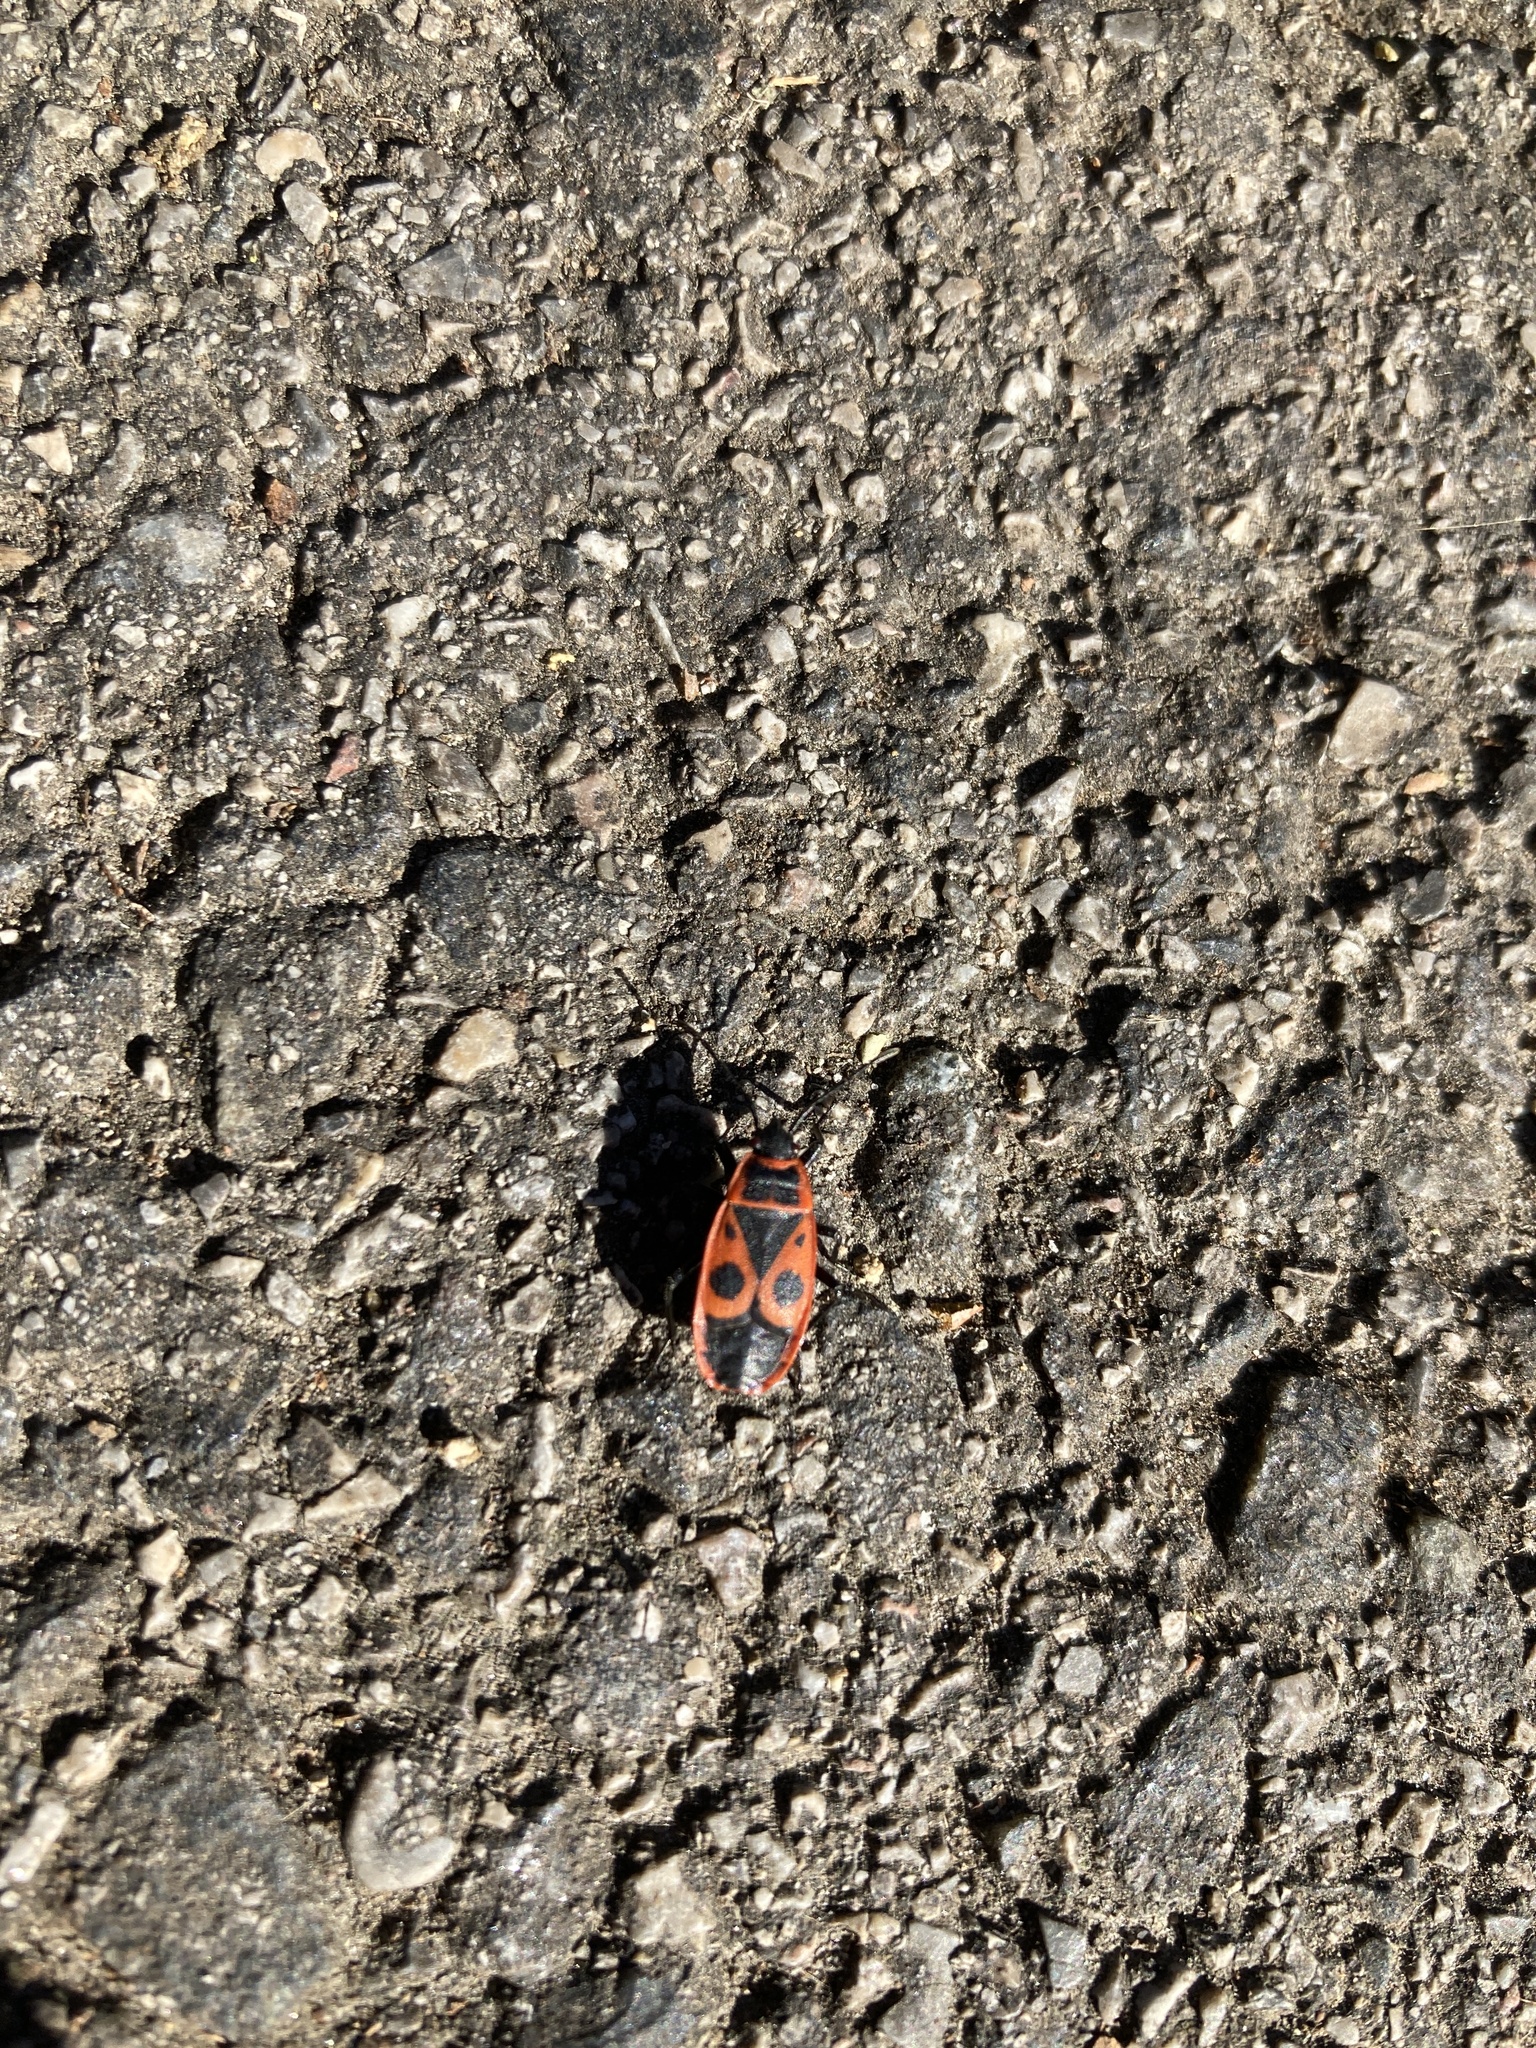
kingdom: Animalia
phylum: Arthropoda
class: Insecta
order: Hemiptera
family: Pyrrhocoridae
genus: Pyrrhocoris
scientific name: Pyrrhocoris apterus
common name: Firebug
